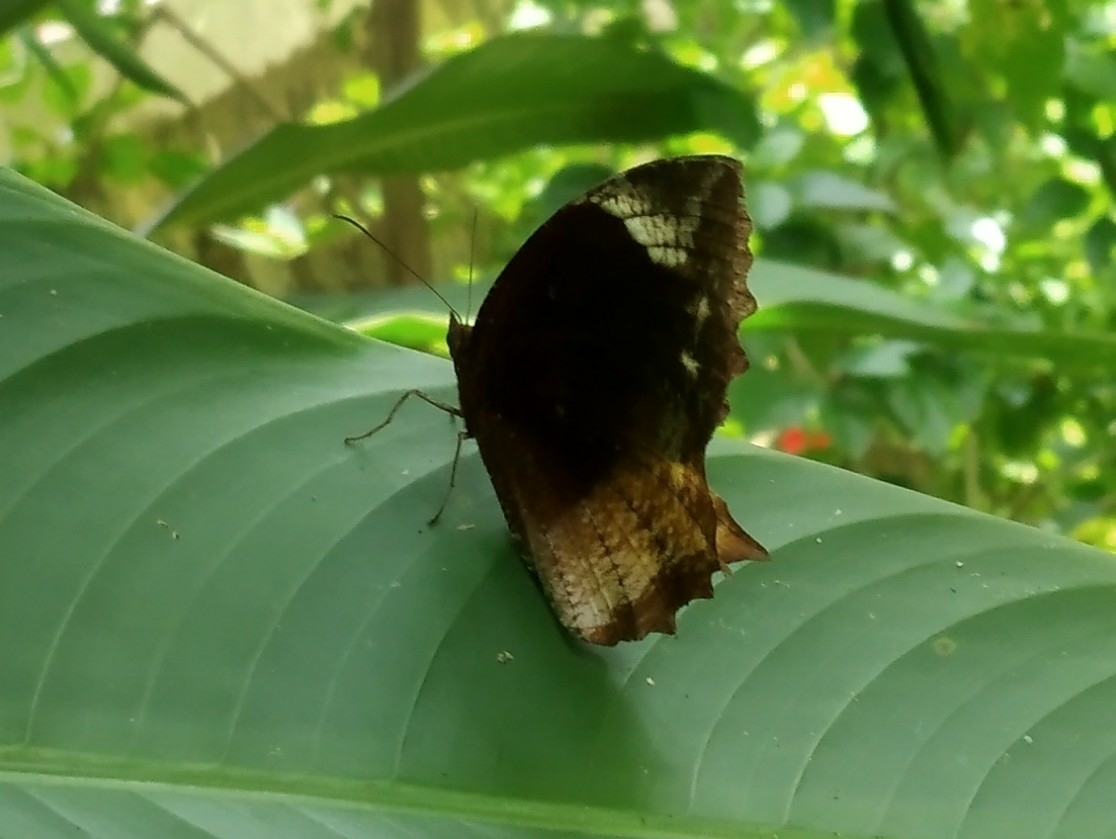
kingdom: Animalia
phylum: Arthropoda
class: Insecta
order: Lepidoptera
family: Nymphalidae
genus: Elymnias
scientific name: Elymnias caudata
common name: Tailed palmfly
